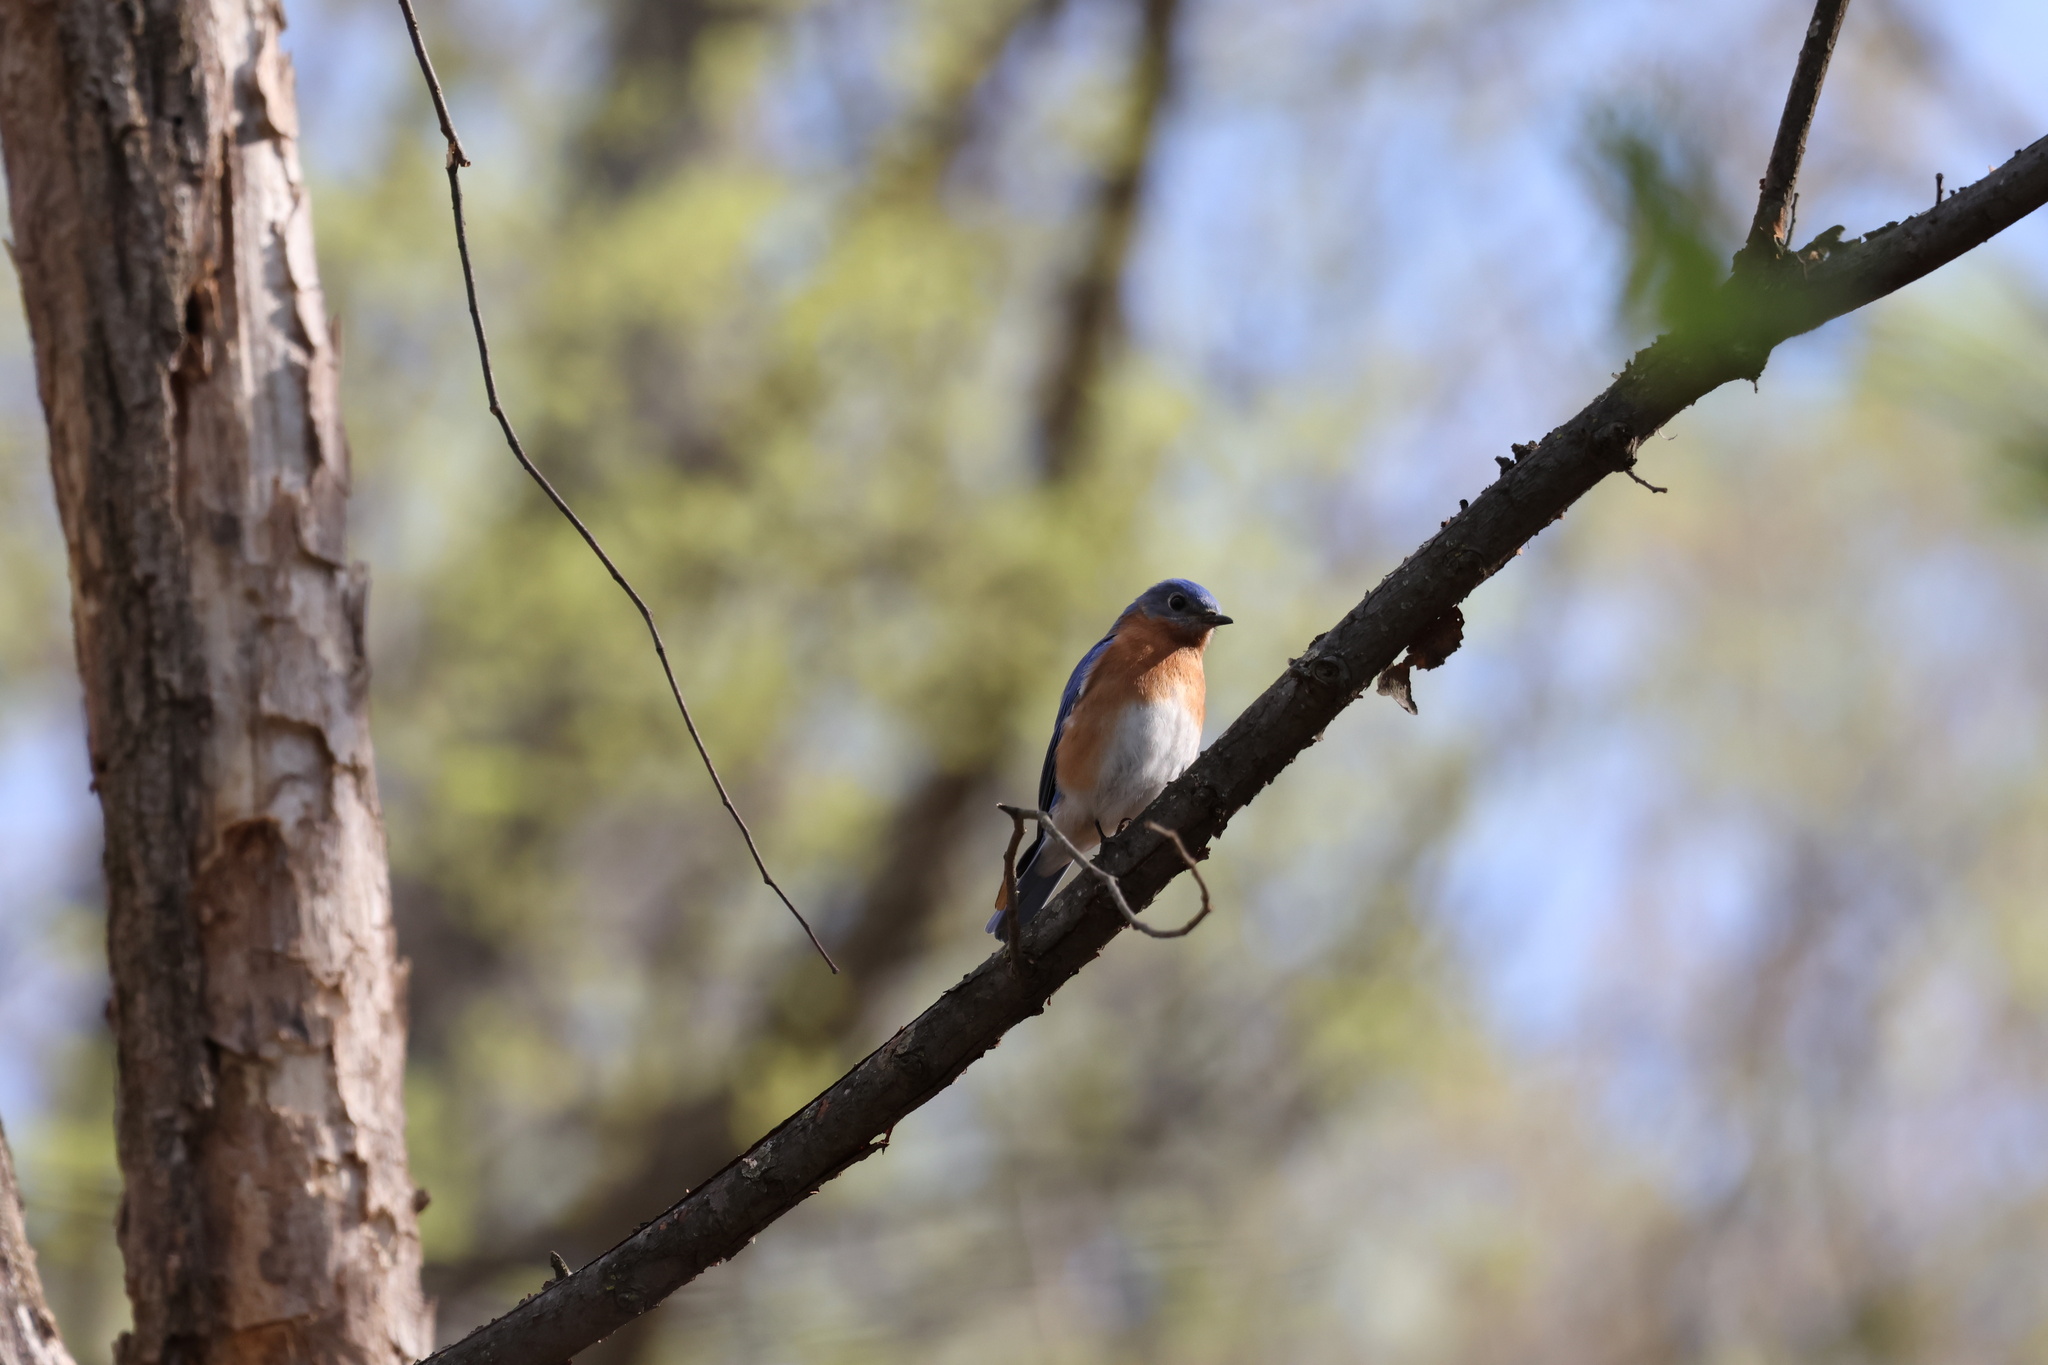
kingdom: Animalia
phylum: Chordata
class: Aves
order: Passeriformes
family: Turdidae
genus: Sialia
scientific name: Sialia sialis
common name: Eastern bluebird
